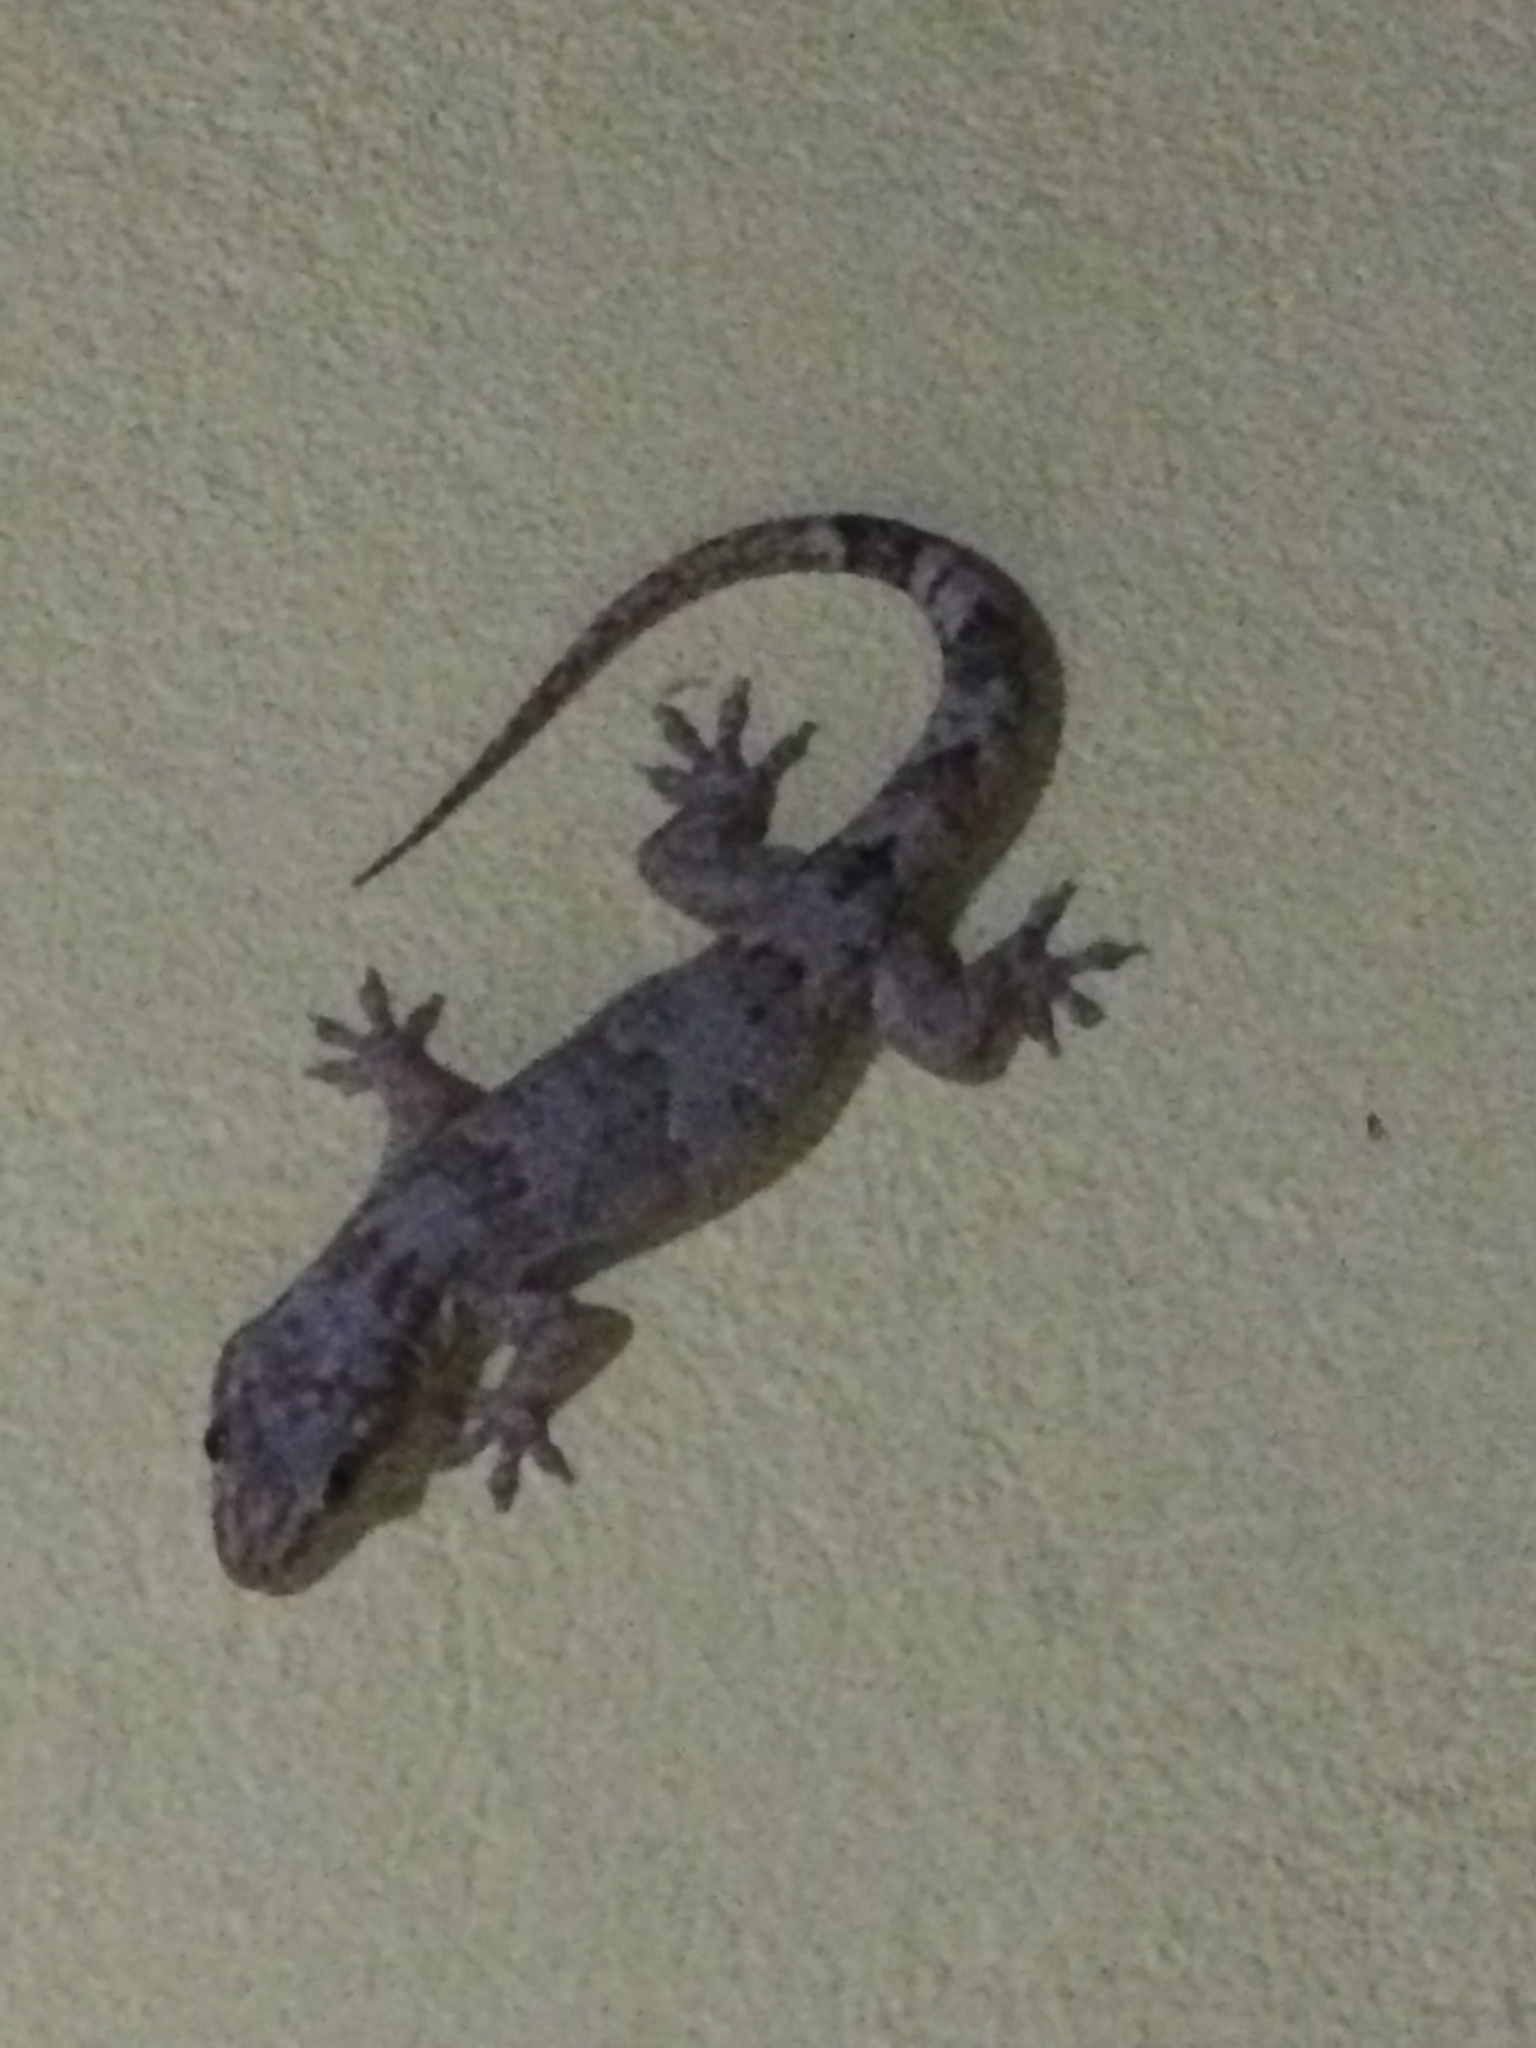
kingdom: Animalia
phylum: Chordata
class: Squamata
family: Gekkonidae
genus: Hemidactylus
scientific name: Hemidactylus mabouia
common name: House gecko
